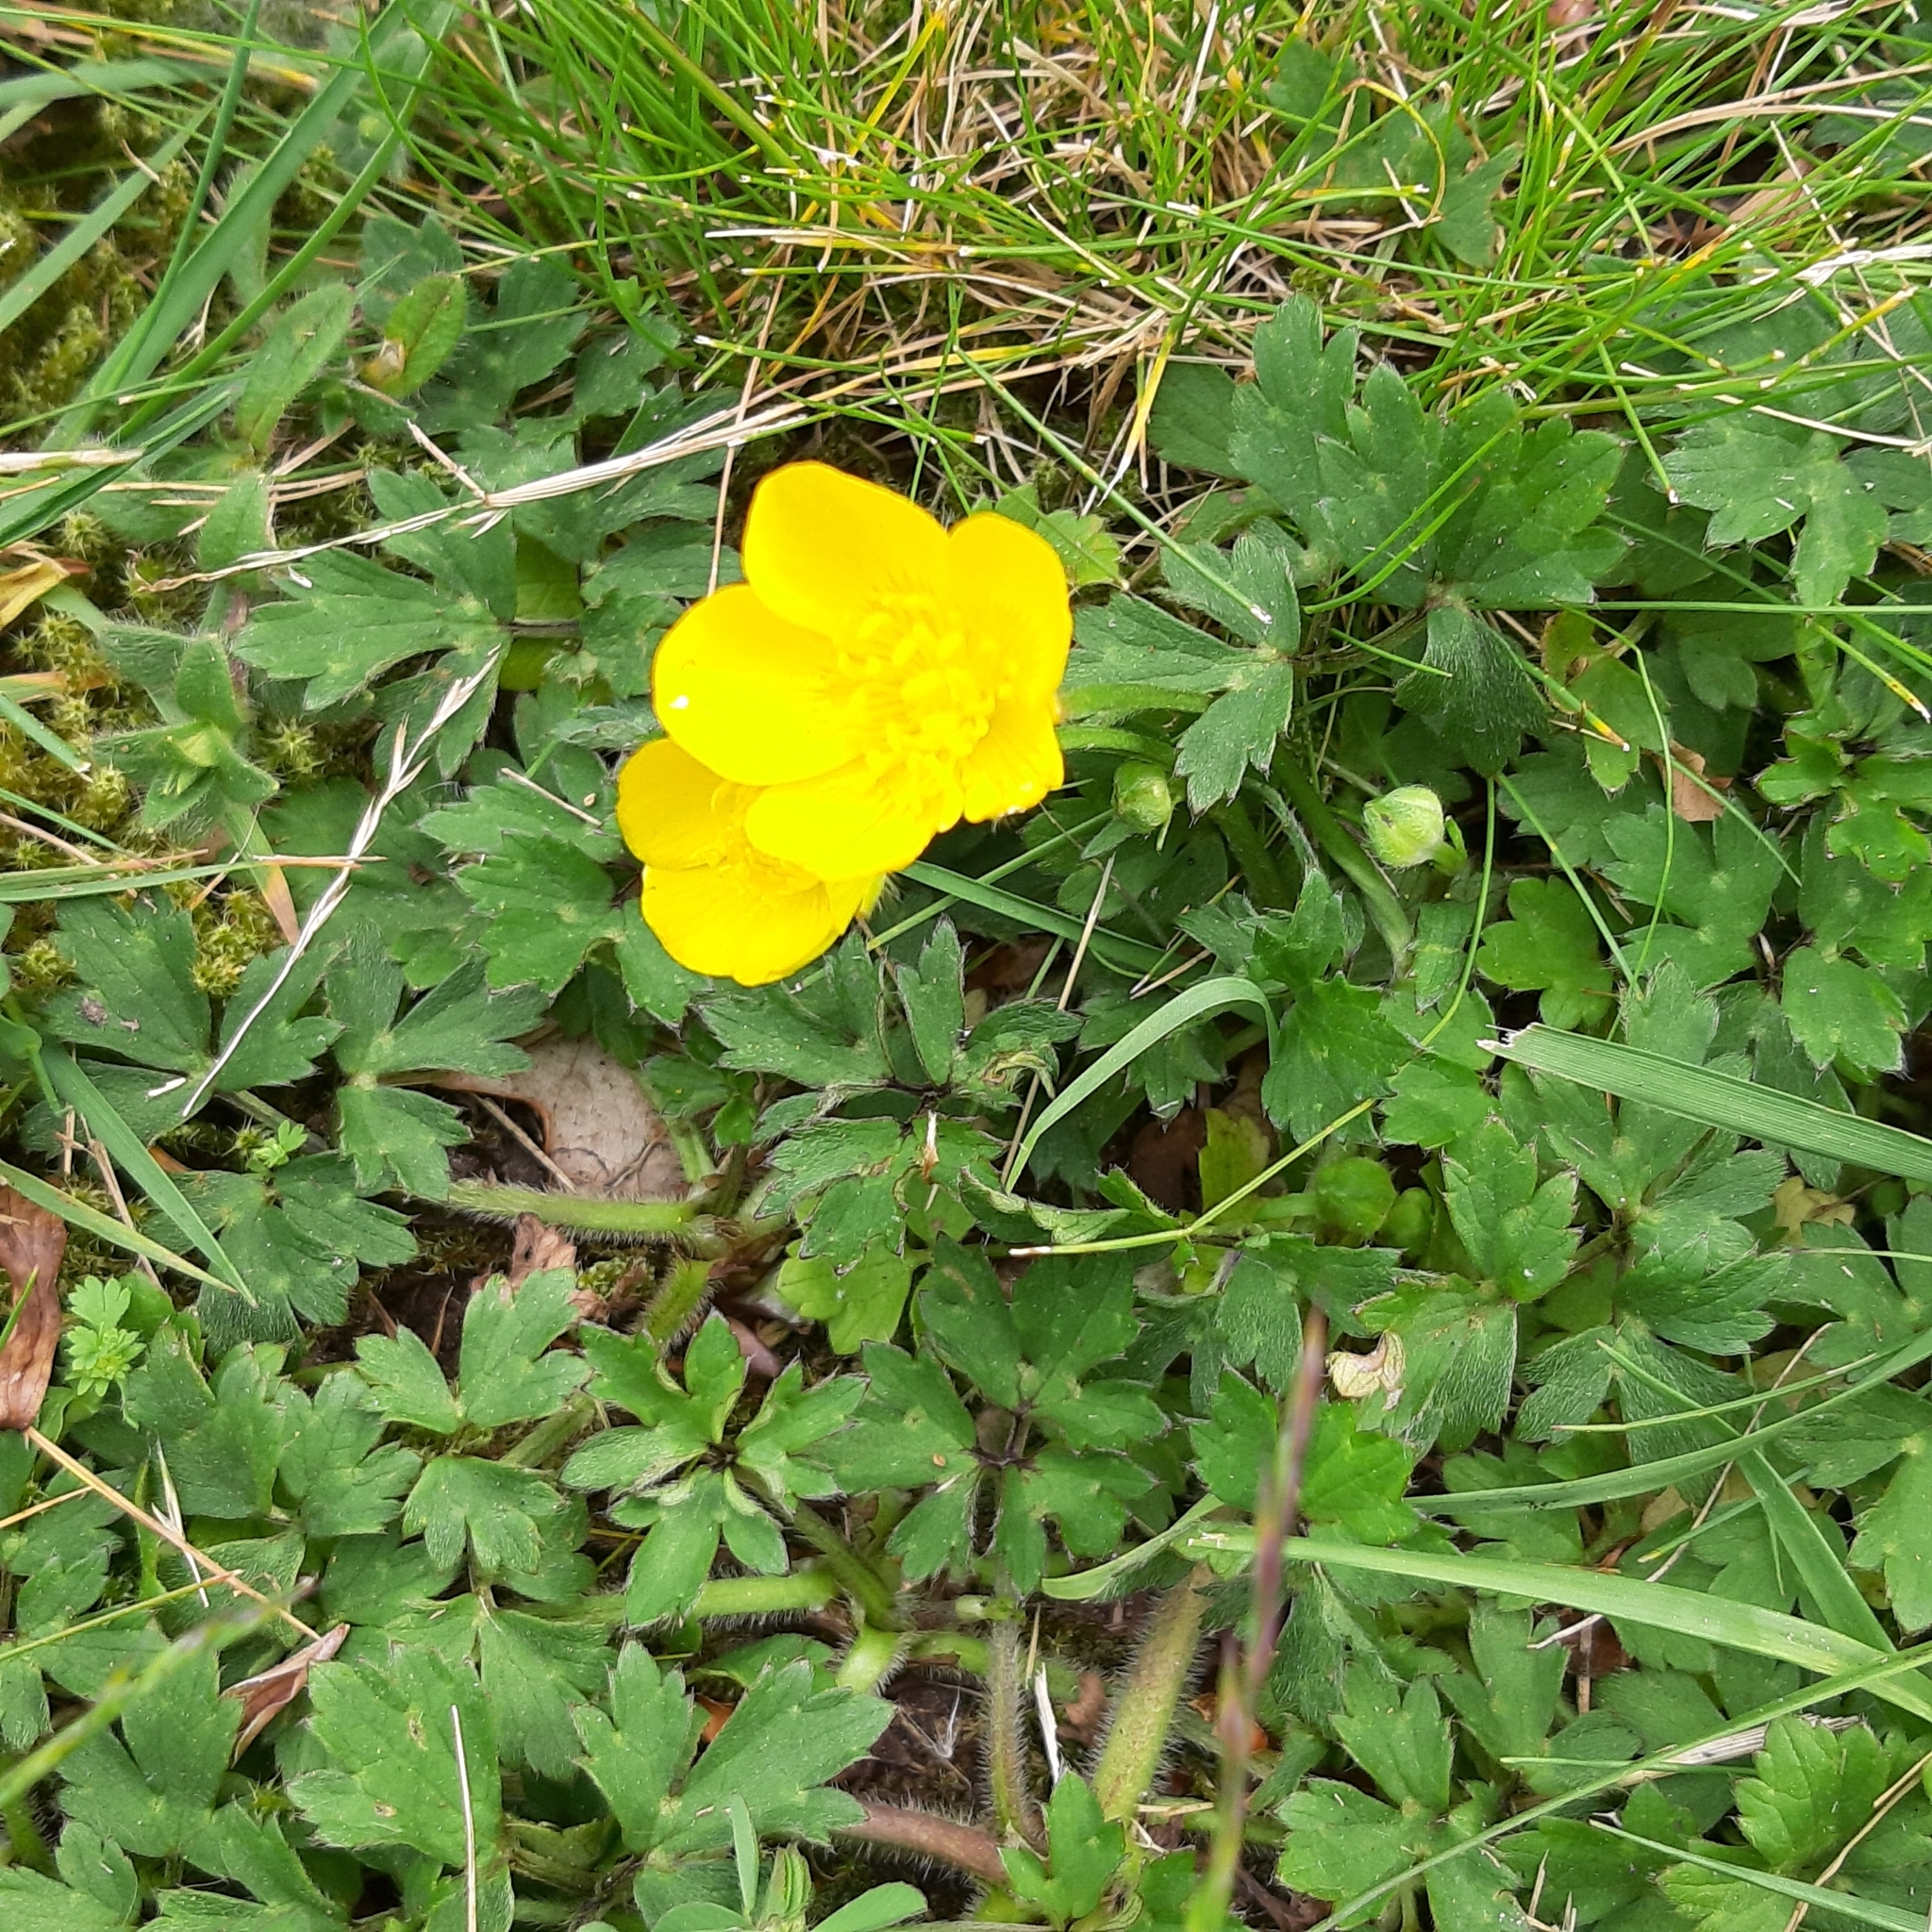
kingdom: Plantae
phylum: Tracheophyta
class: Magnoliopsida
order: Ranunculales
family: Ranunculaceae
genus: Ranunculus
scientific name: Ranunculus repens
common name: Creeping buttercup
